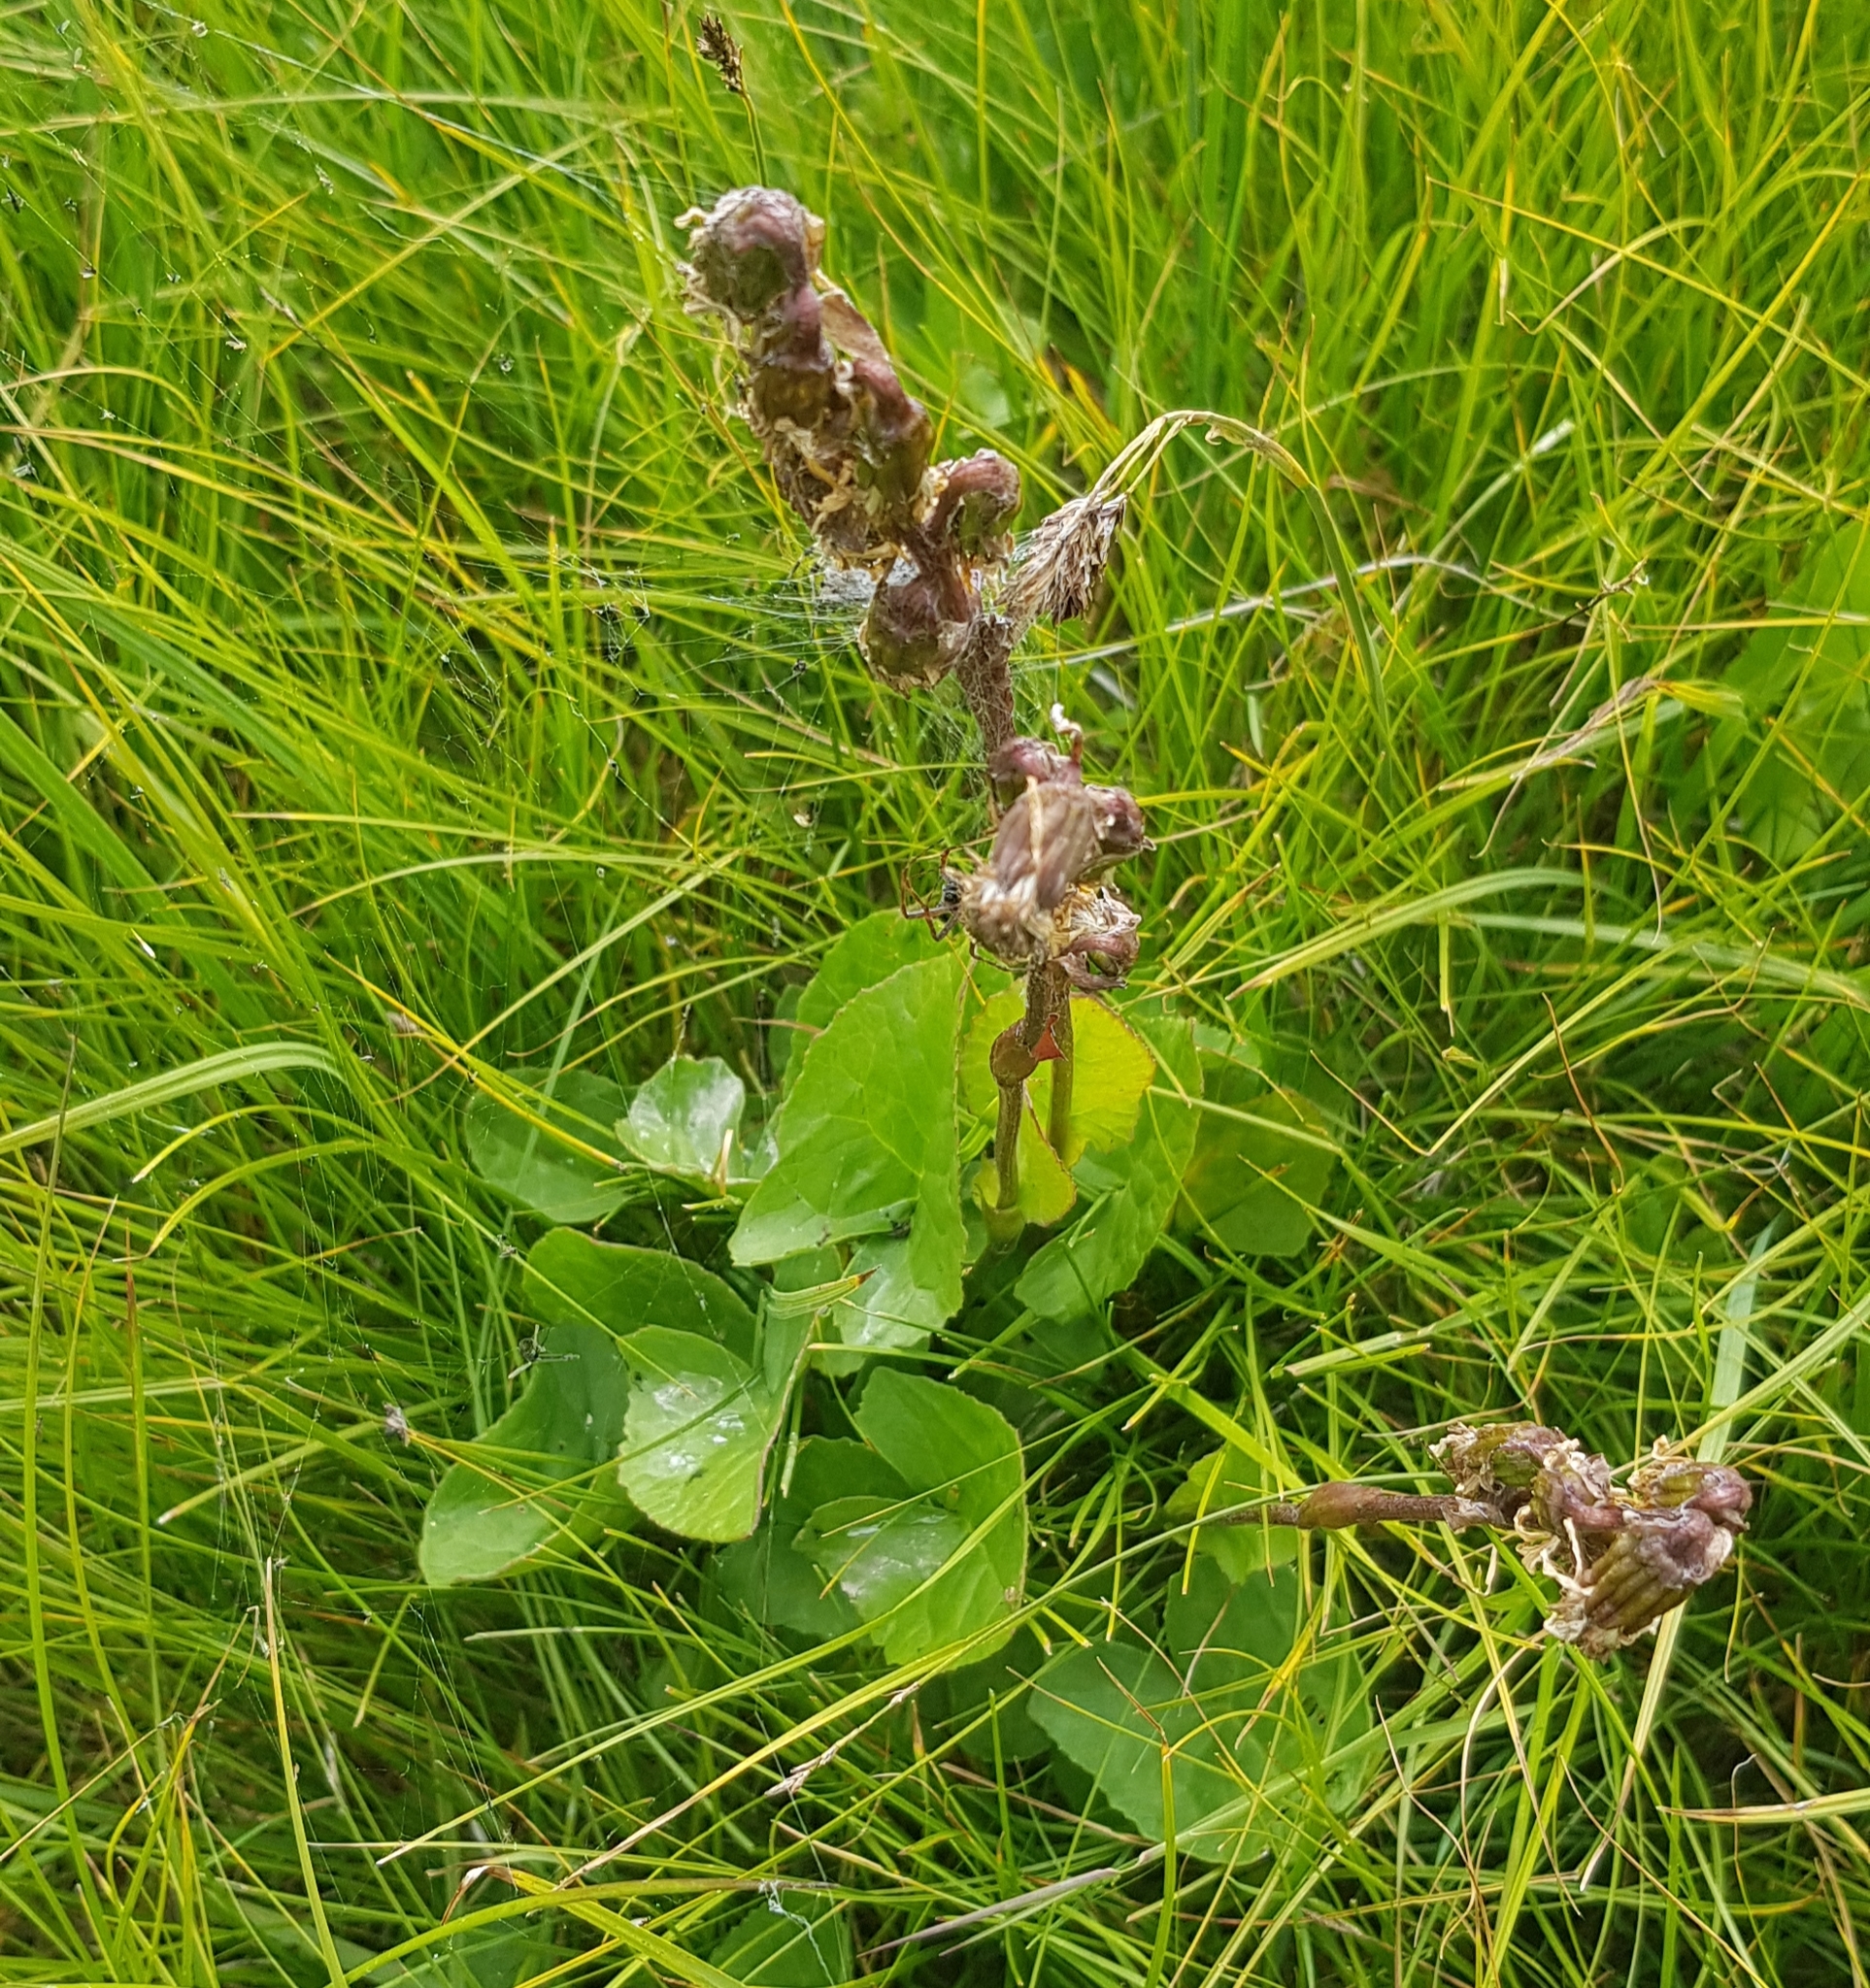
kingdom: Plantae
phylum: Tracheophyta
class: Magnoliopsida
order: Asterales
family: Asteraceae
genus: Ligularia
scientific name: Ligularia sibirica
